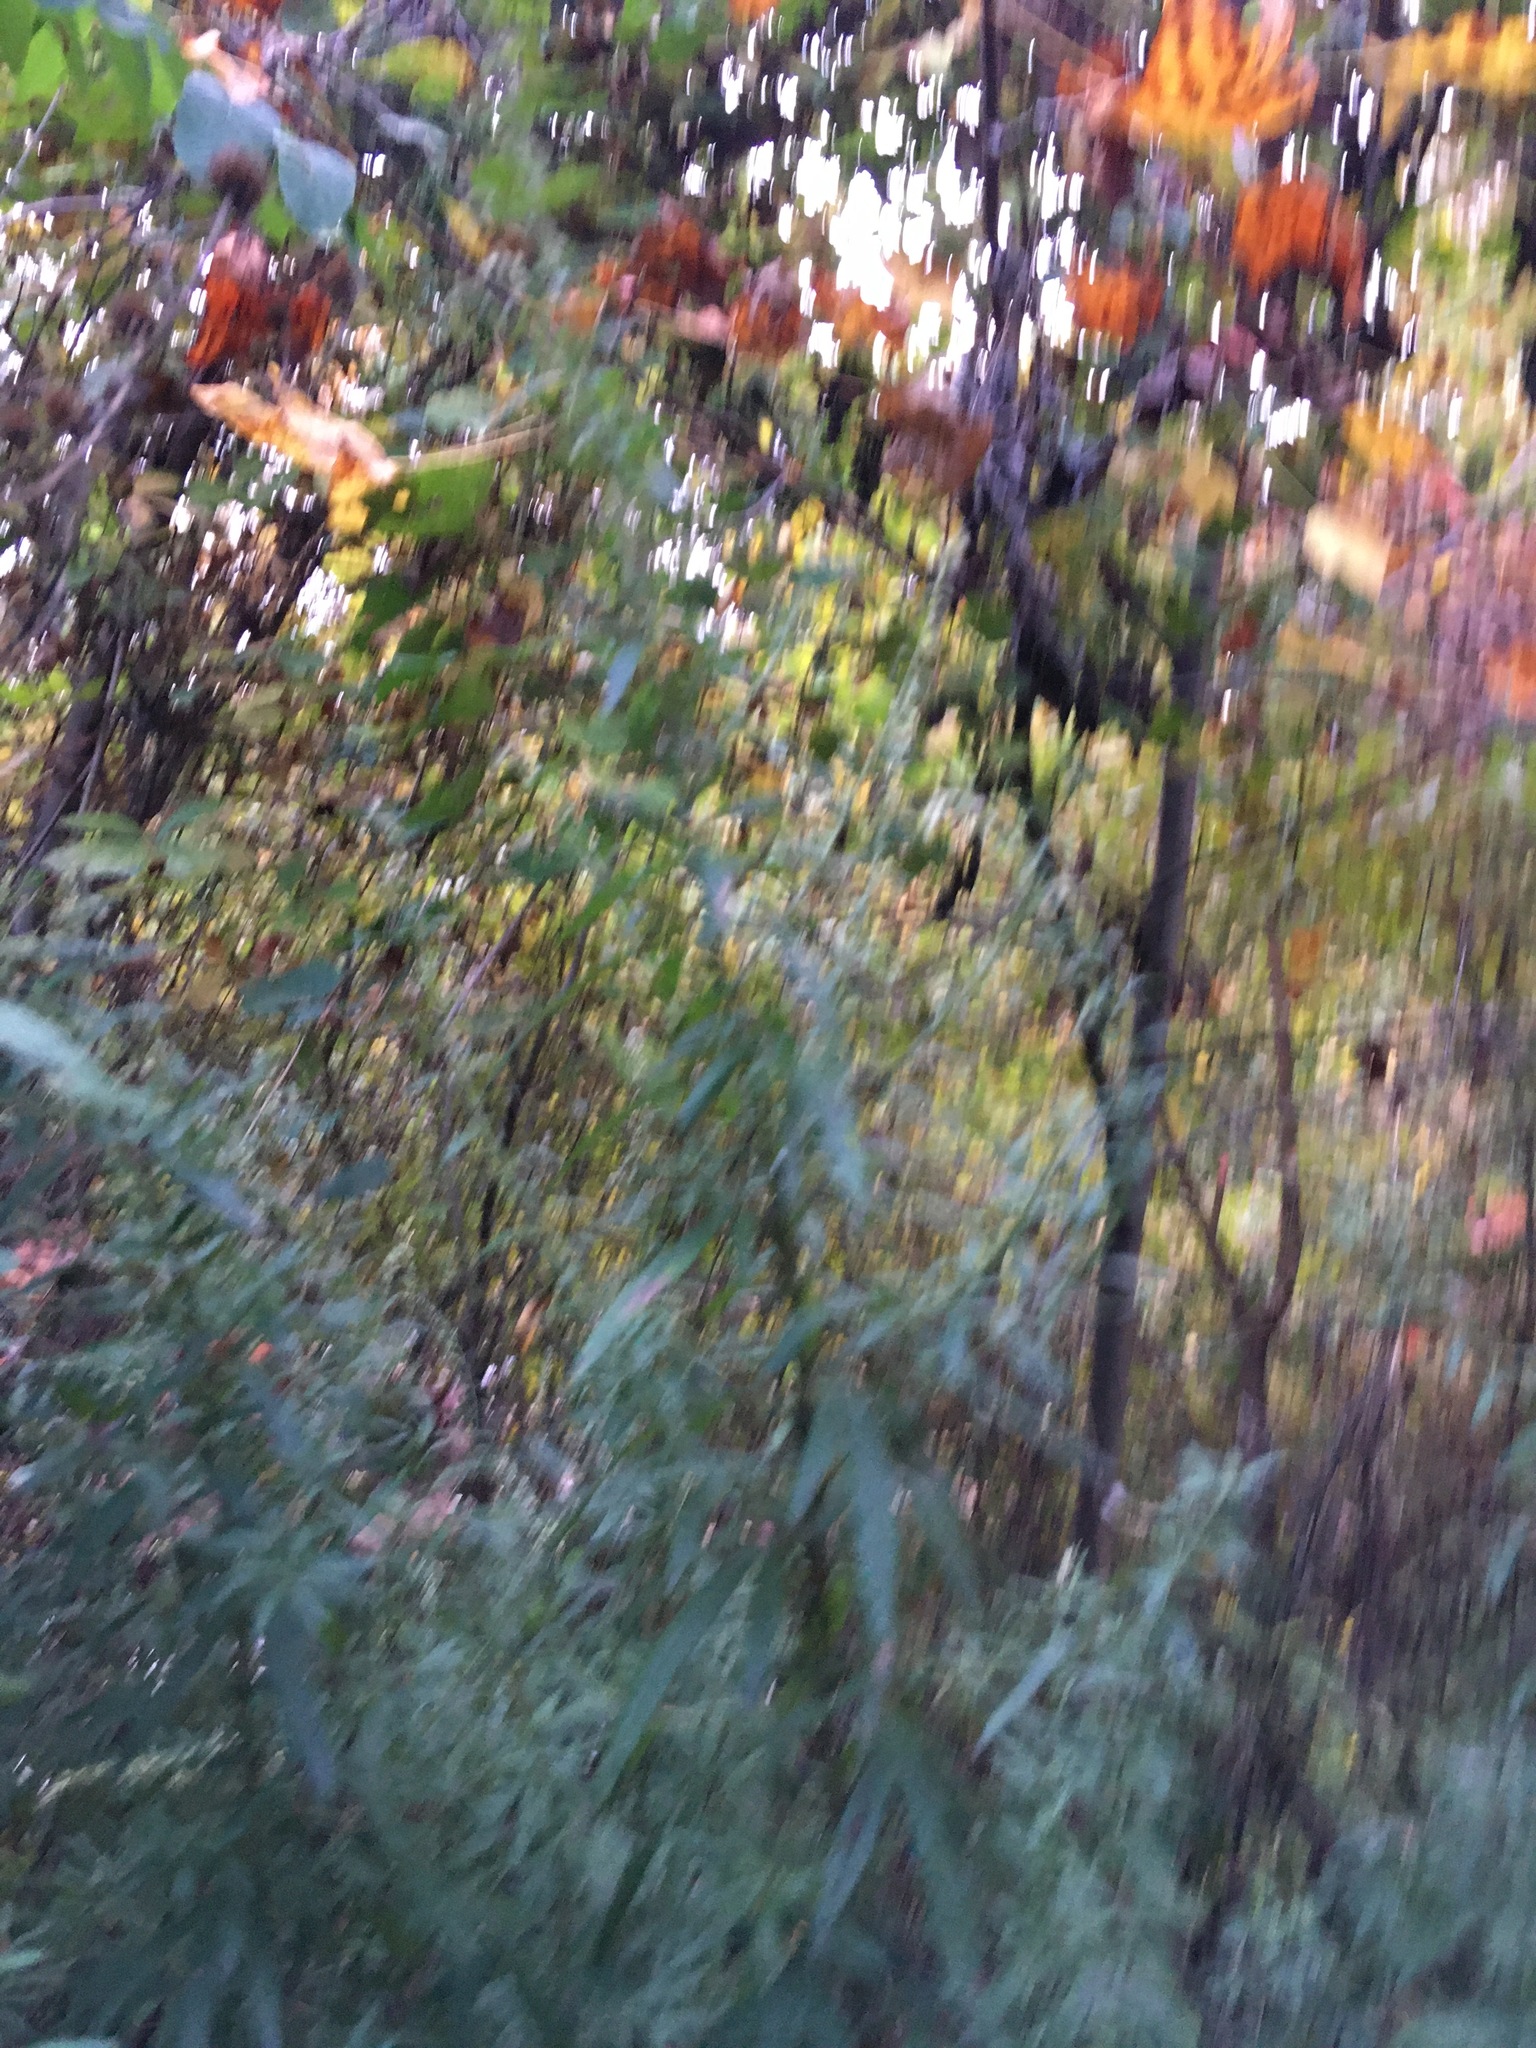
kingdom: Plantae
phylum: Tracheophyta
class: Magnoliopsida
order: Asterales
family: Asteraceae
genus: Artemisia
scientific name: Artemisia vulgaris
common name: Mugwort
